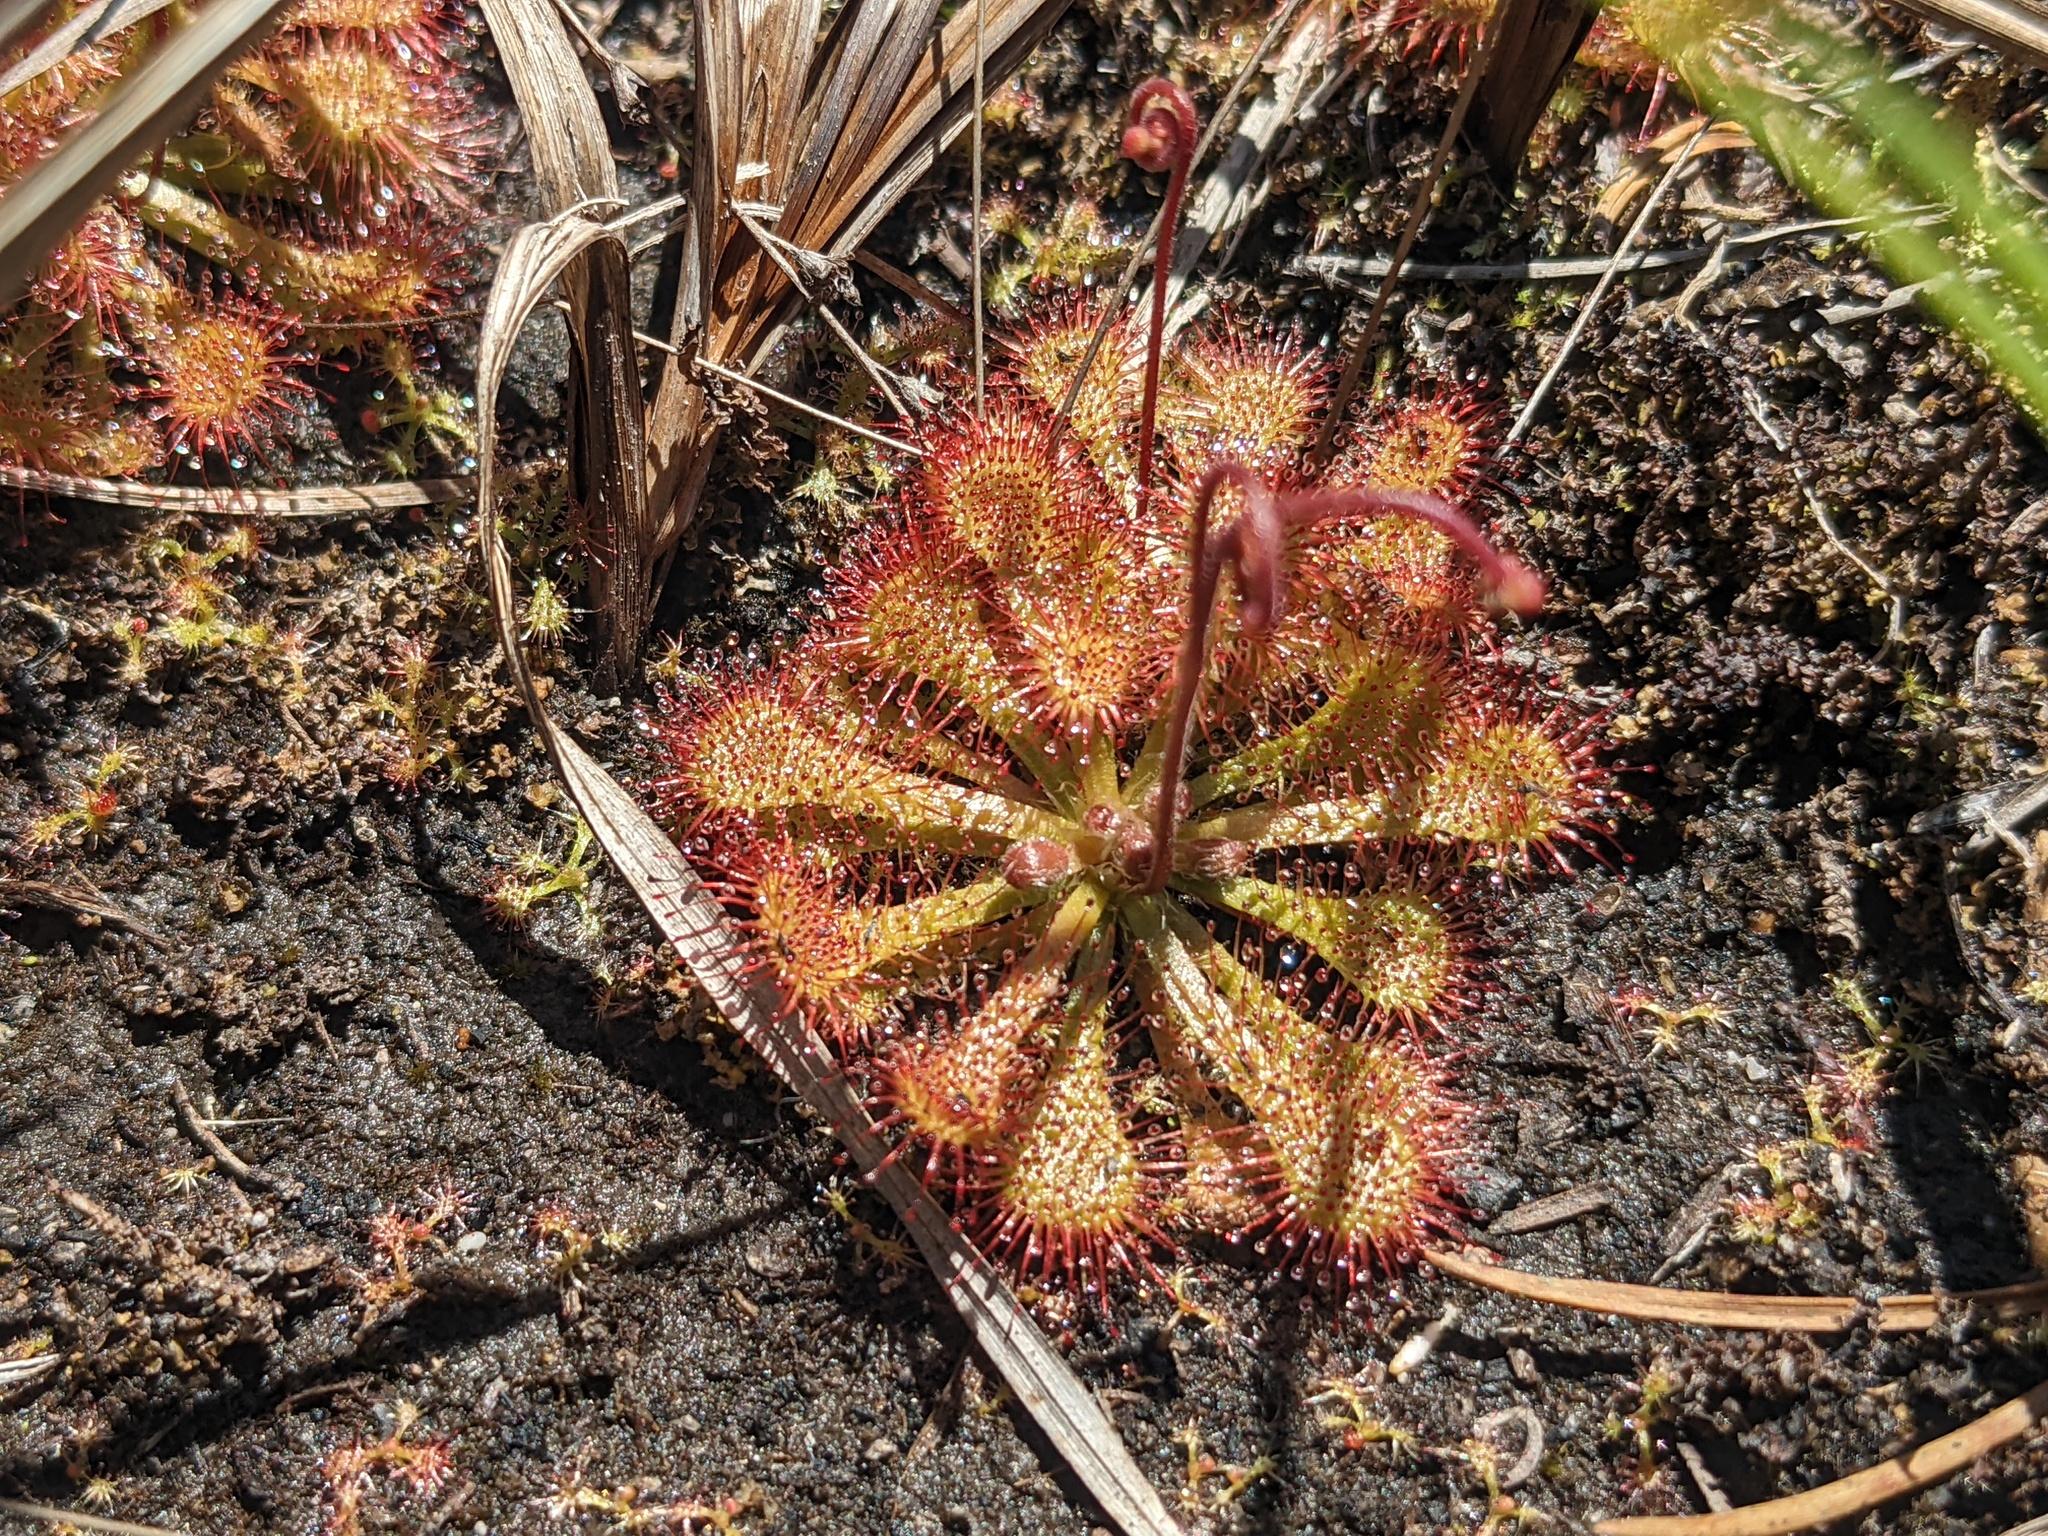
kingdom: Plantae
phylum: Tracheophyta
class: Magnoliopsida
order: Caryophyllales
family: Droseraceae
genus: Drosera
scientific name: Drosera spatulata
